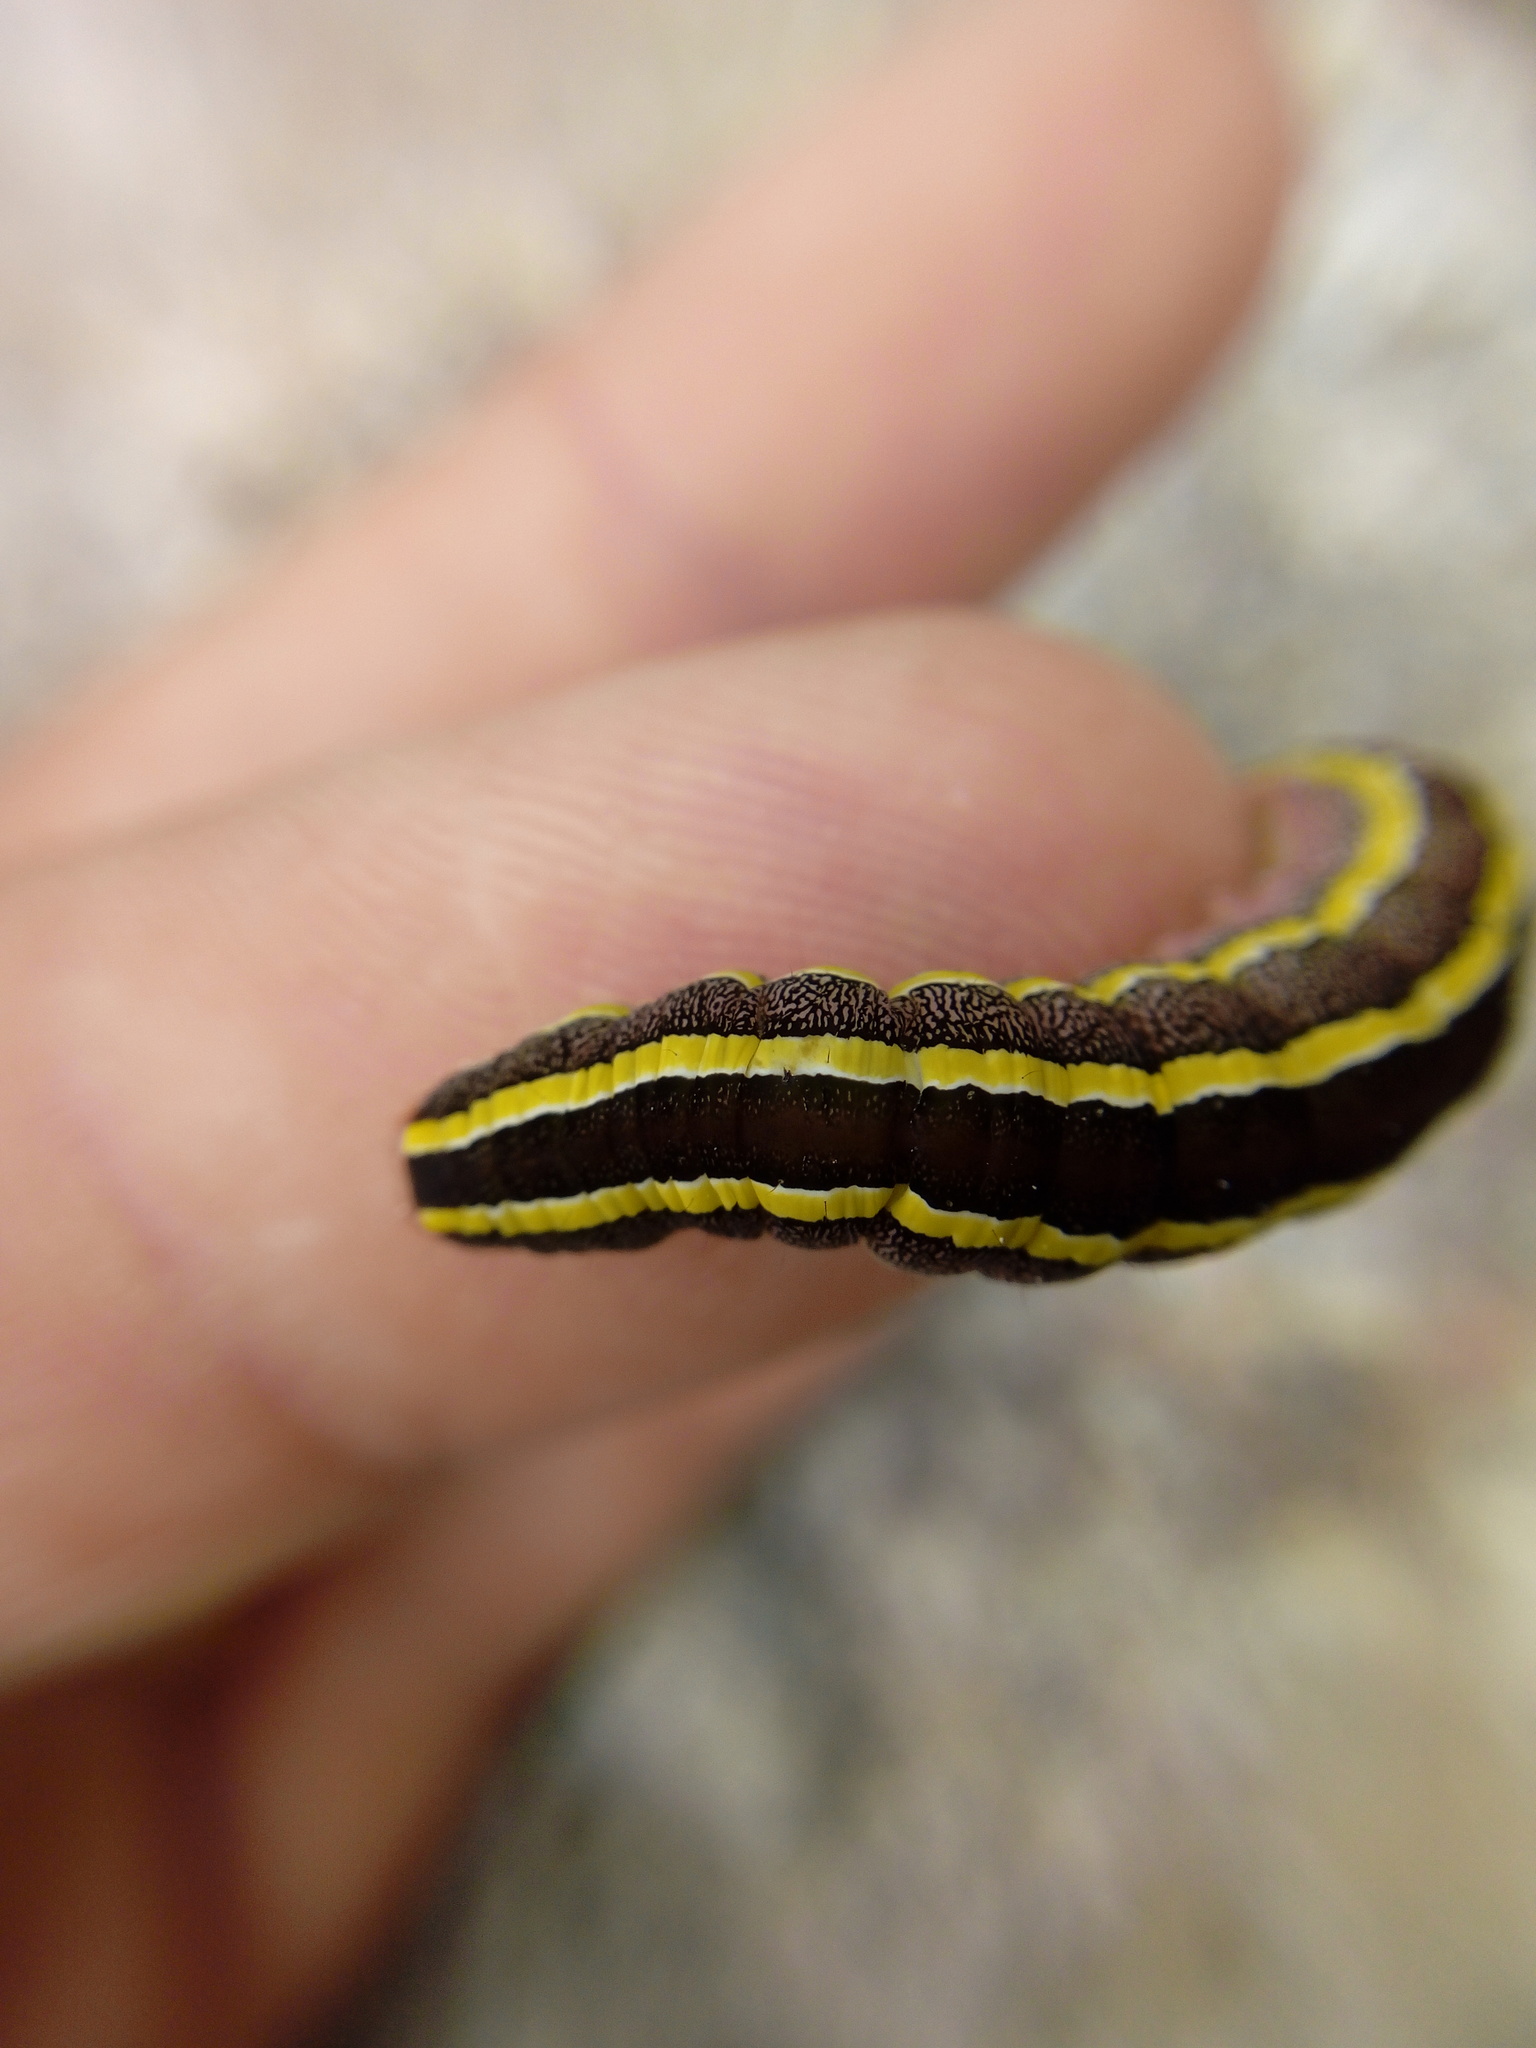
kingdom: Animalia
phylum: Arthropoda
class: Insecta
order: Lepidoptera
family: Noctuidae
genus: Ceramica
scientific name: Ceramica pisi
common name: Broom moth
